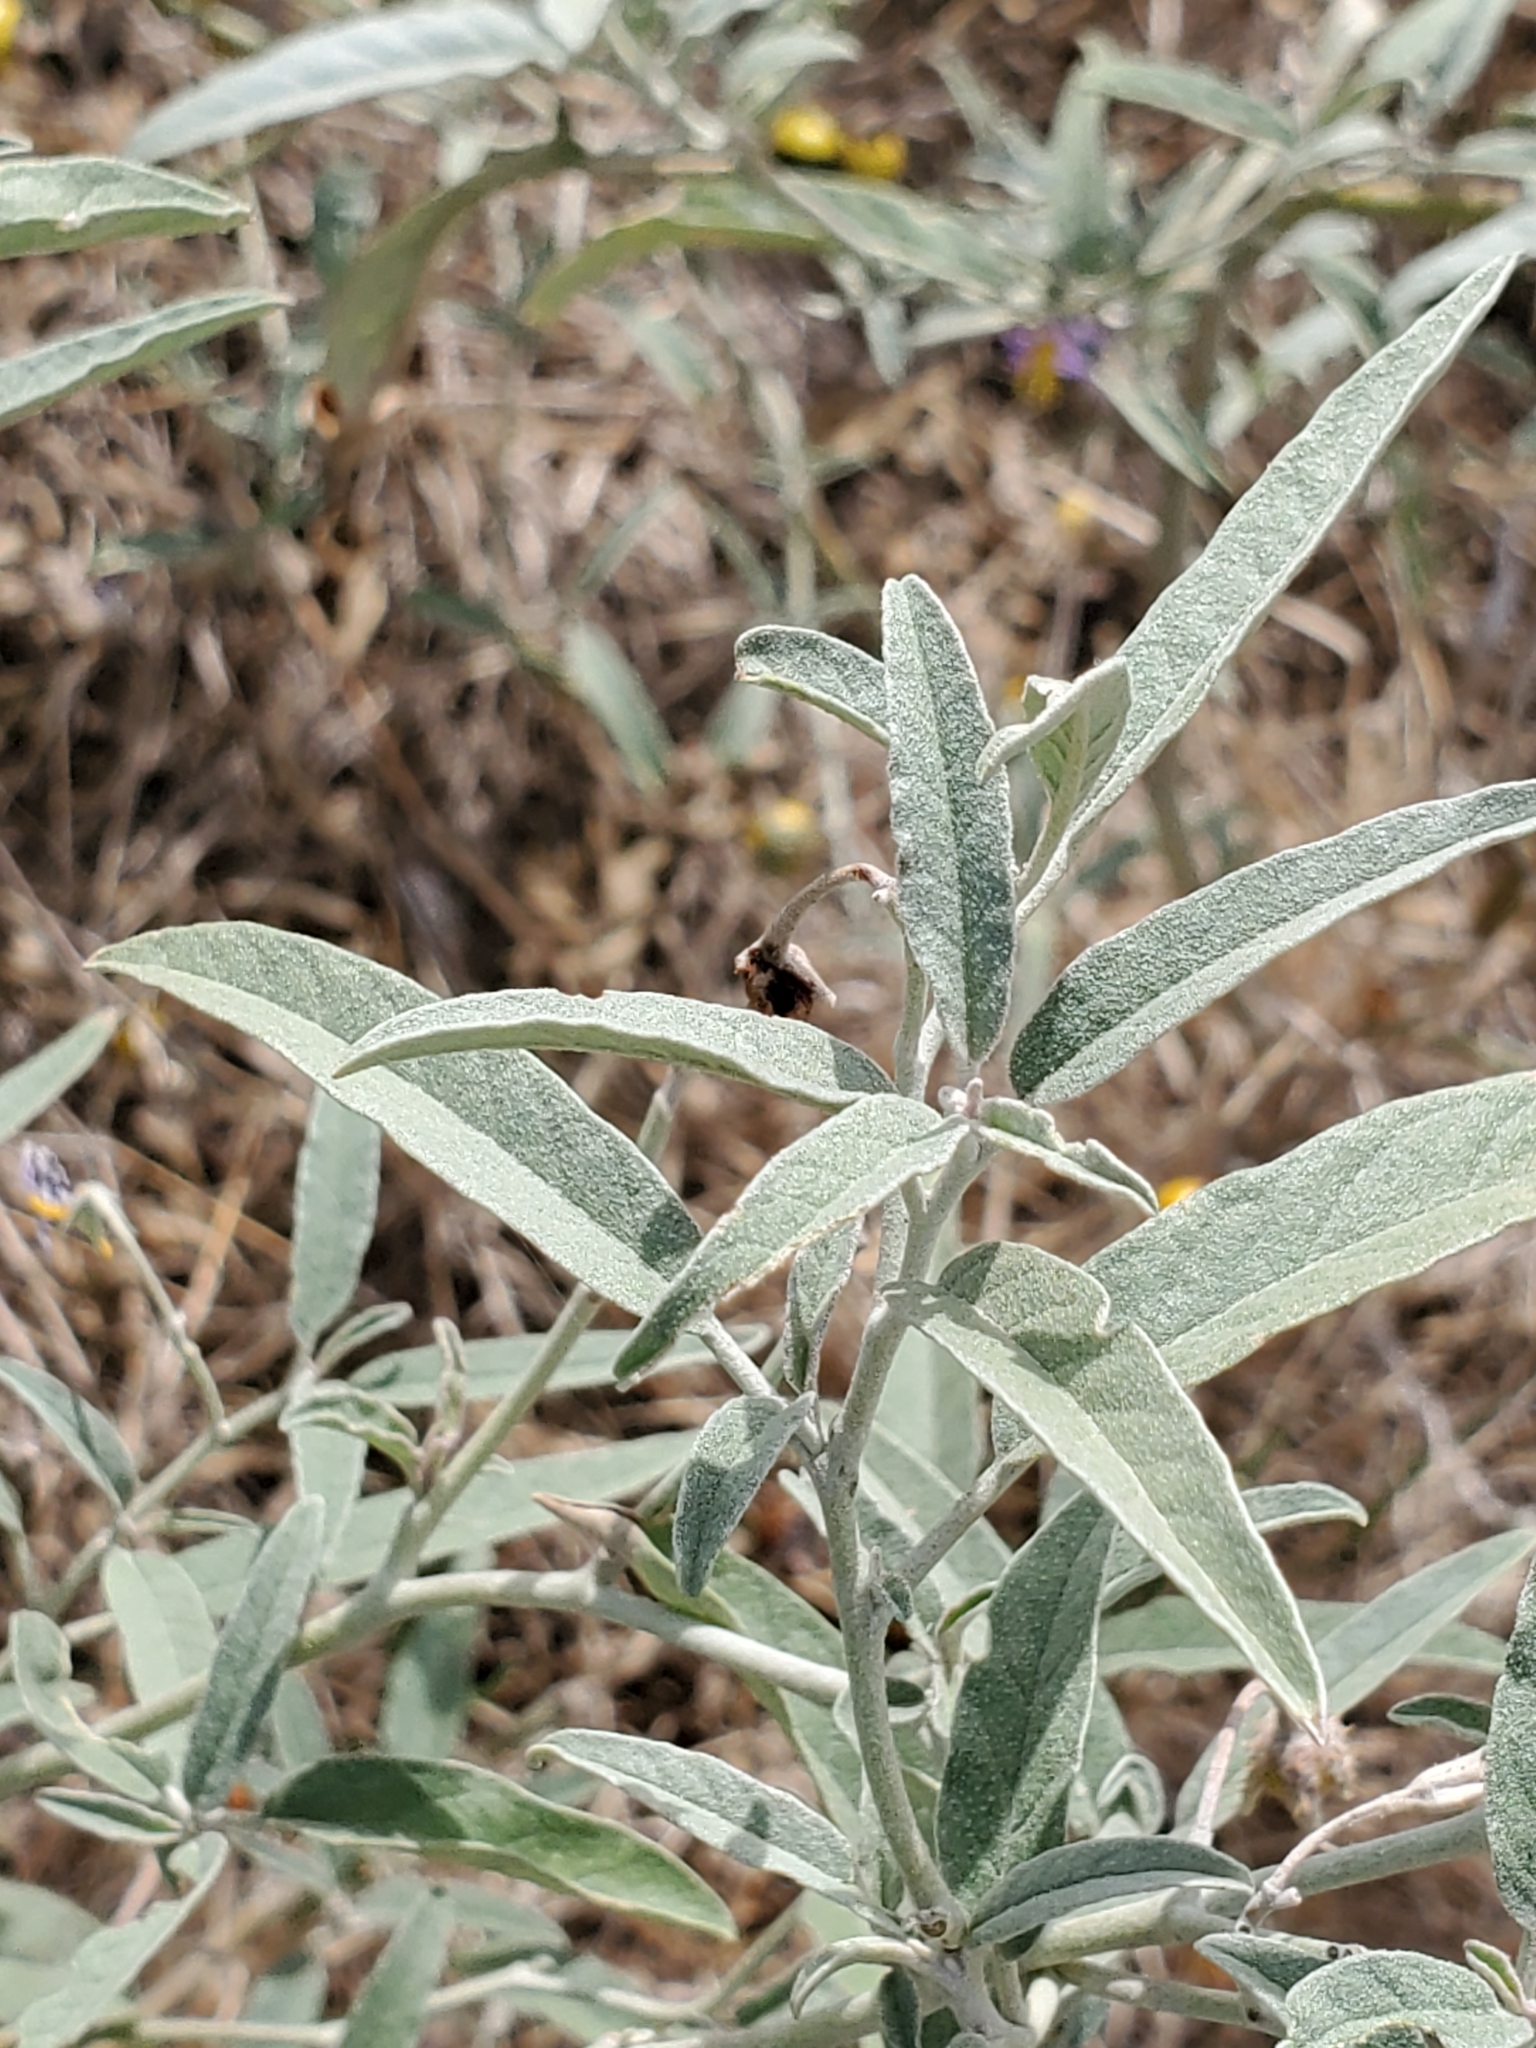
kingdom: Plantae
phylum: Tracheophyta
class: Magnoliopsida
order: Solanales
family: Solanaceae
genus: Solanum
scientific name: Solanum elaeagnifolium
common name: Silverleaf nightshade
